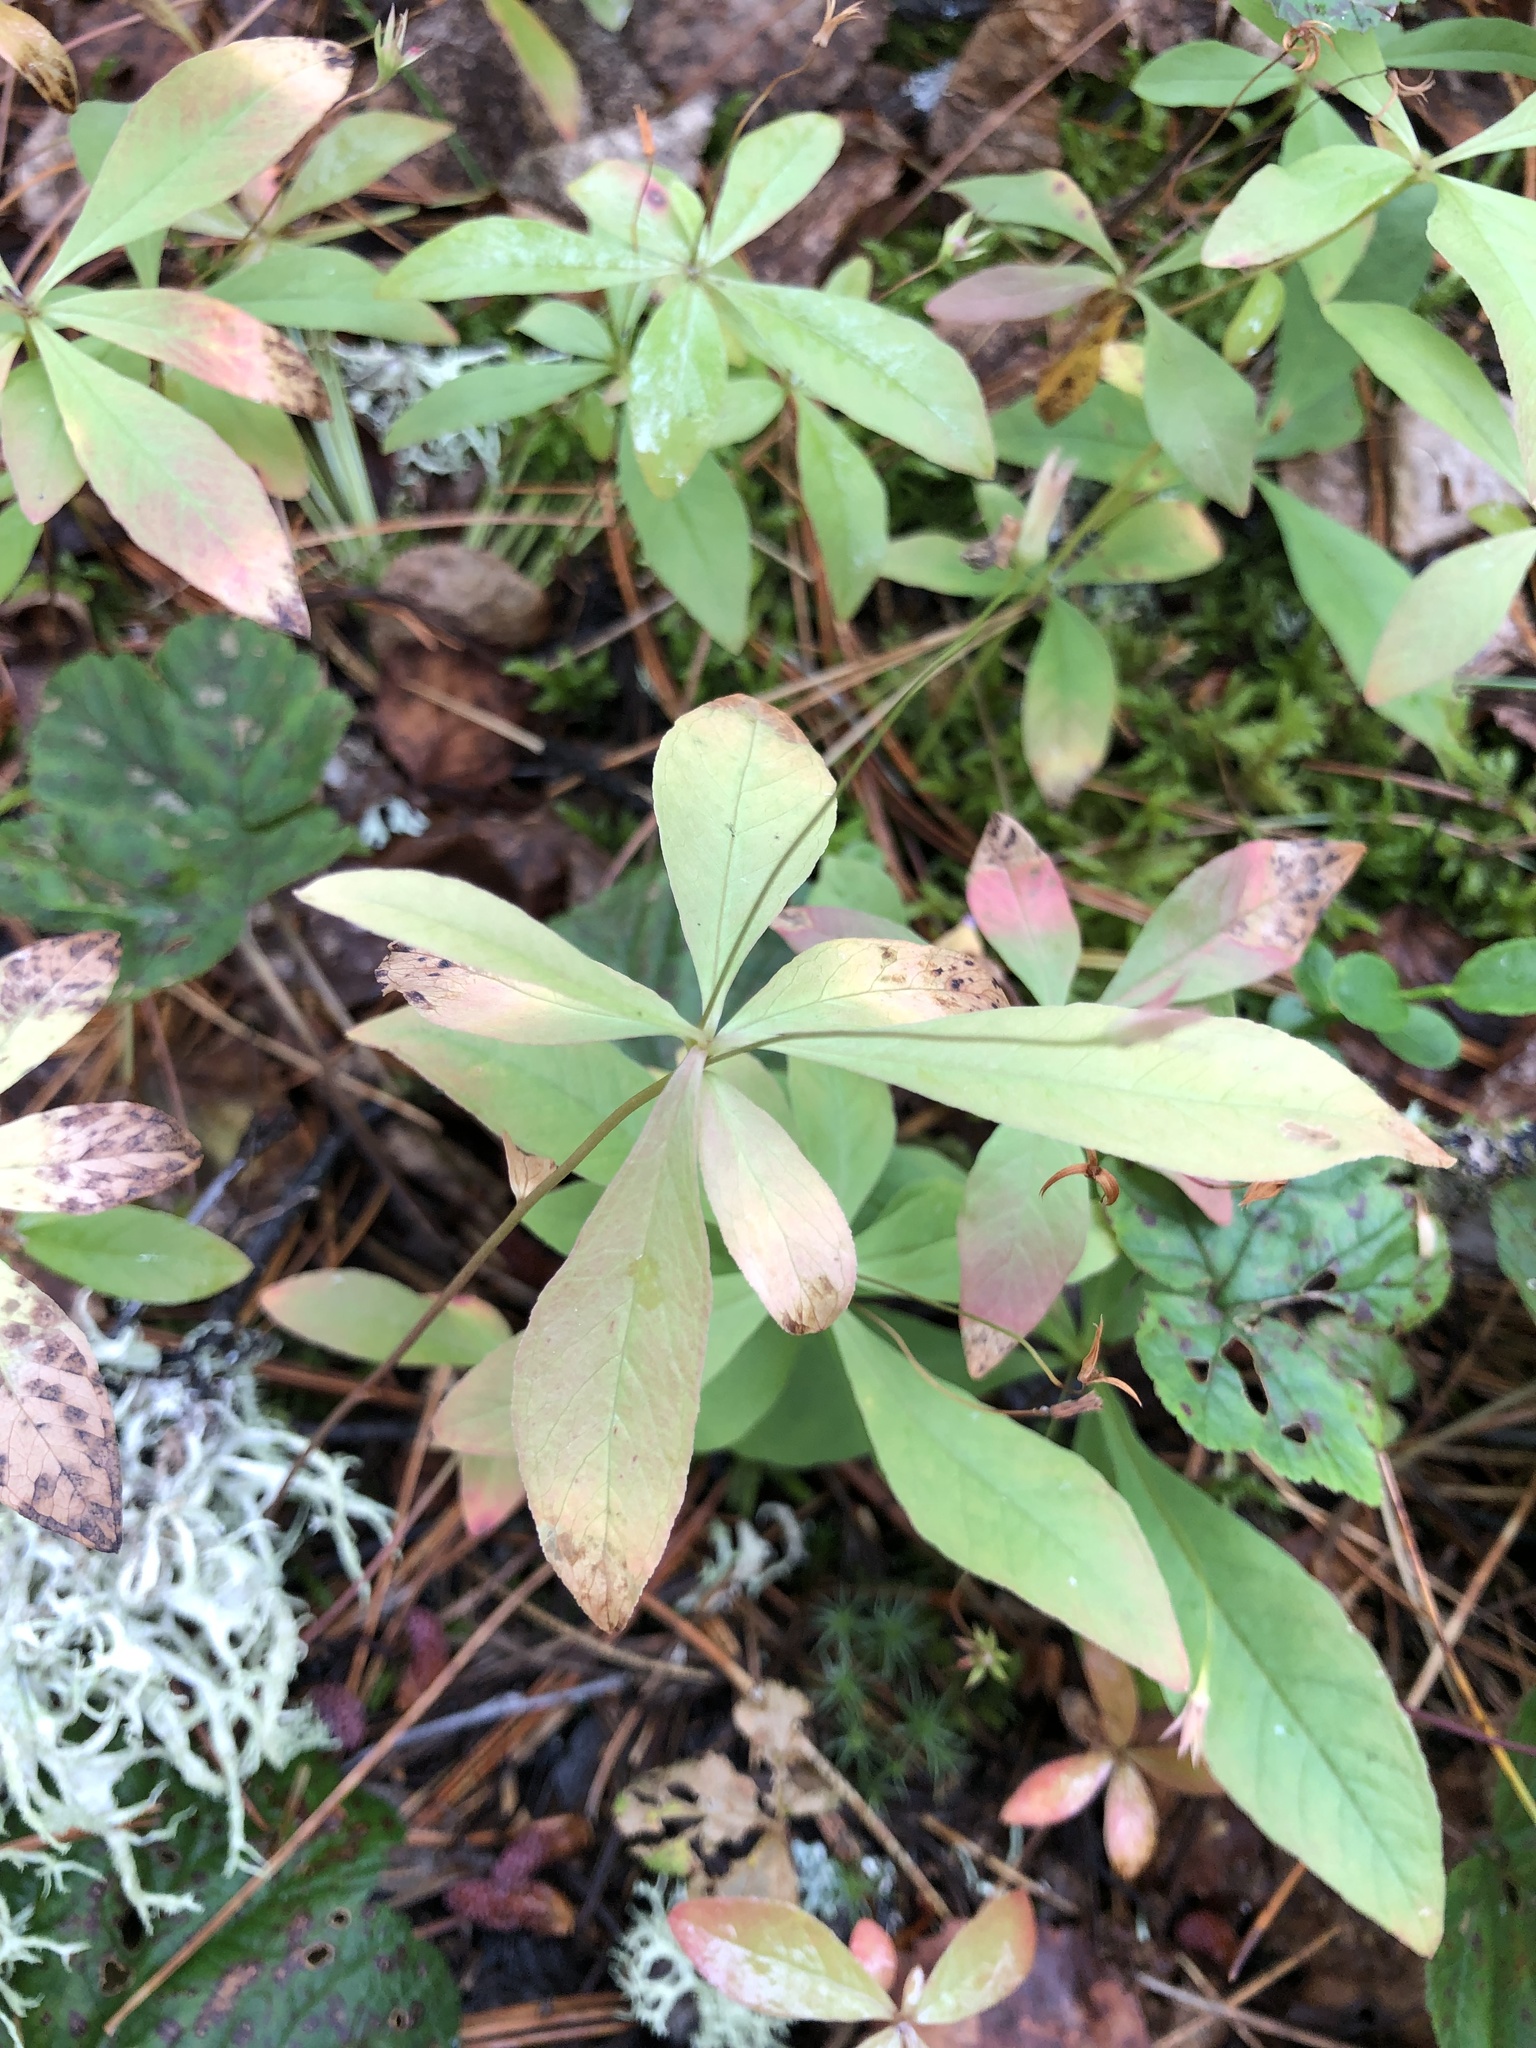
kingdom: Plantae
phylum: Tracheophyta
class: Magnoliopsida
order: Ericales
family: Primulaceae
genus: Lysimachia
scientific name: Lysimachia europaea
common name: Arctic starflower
